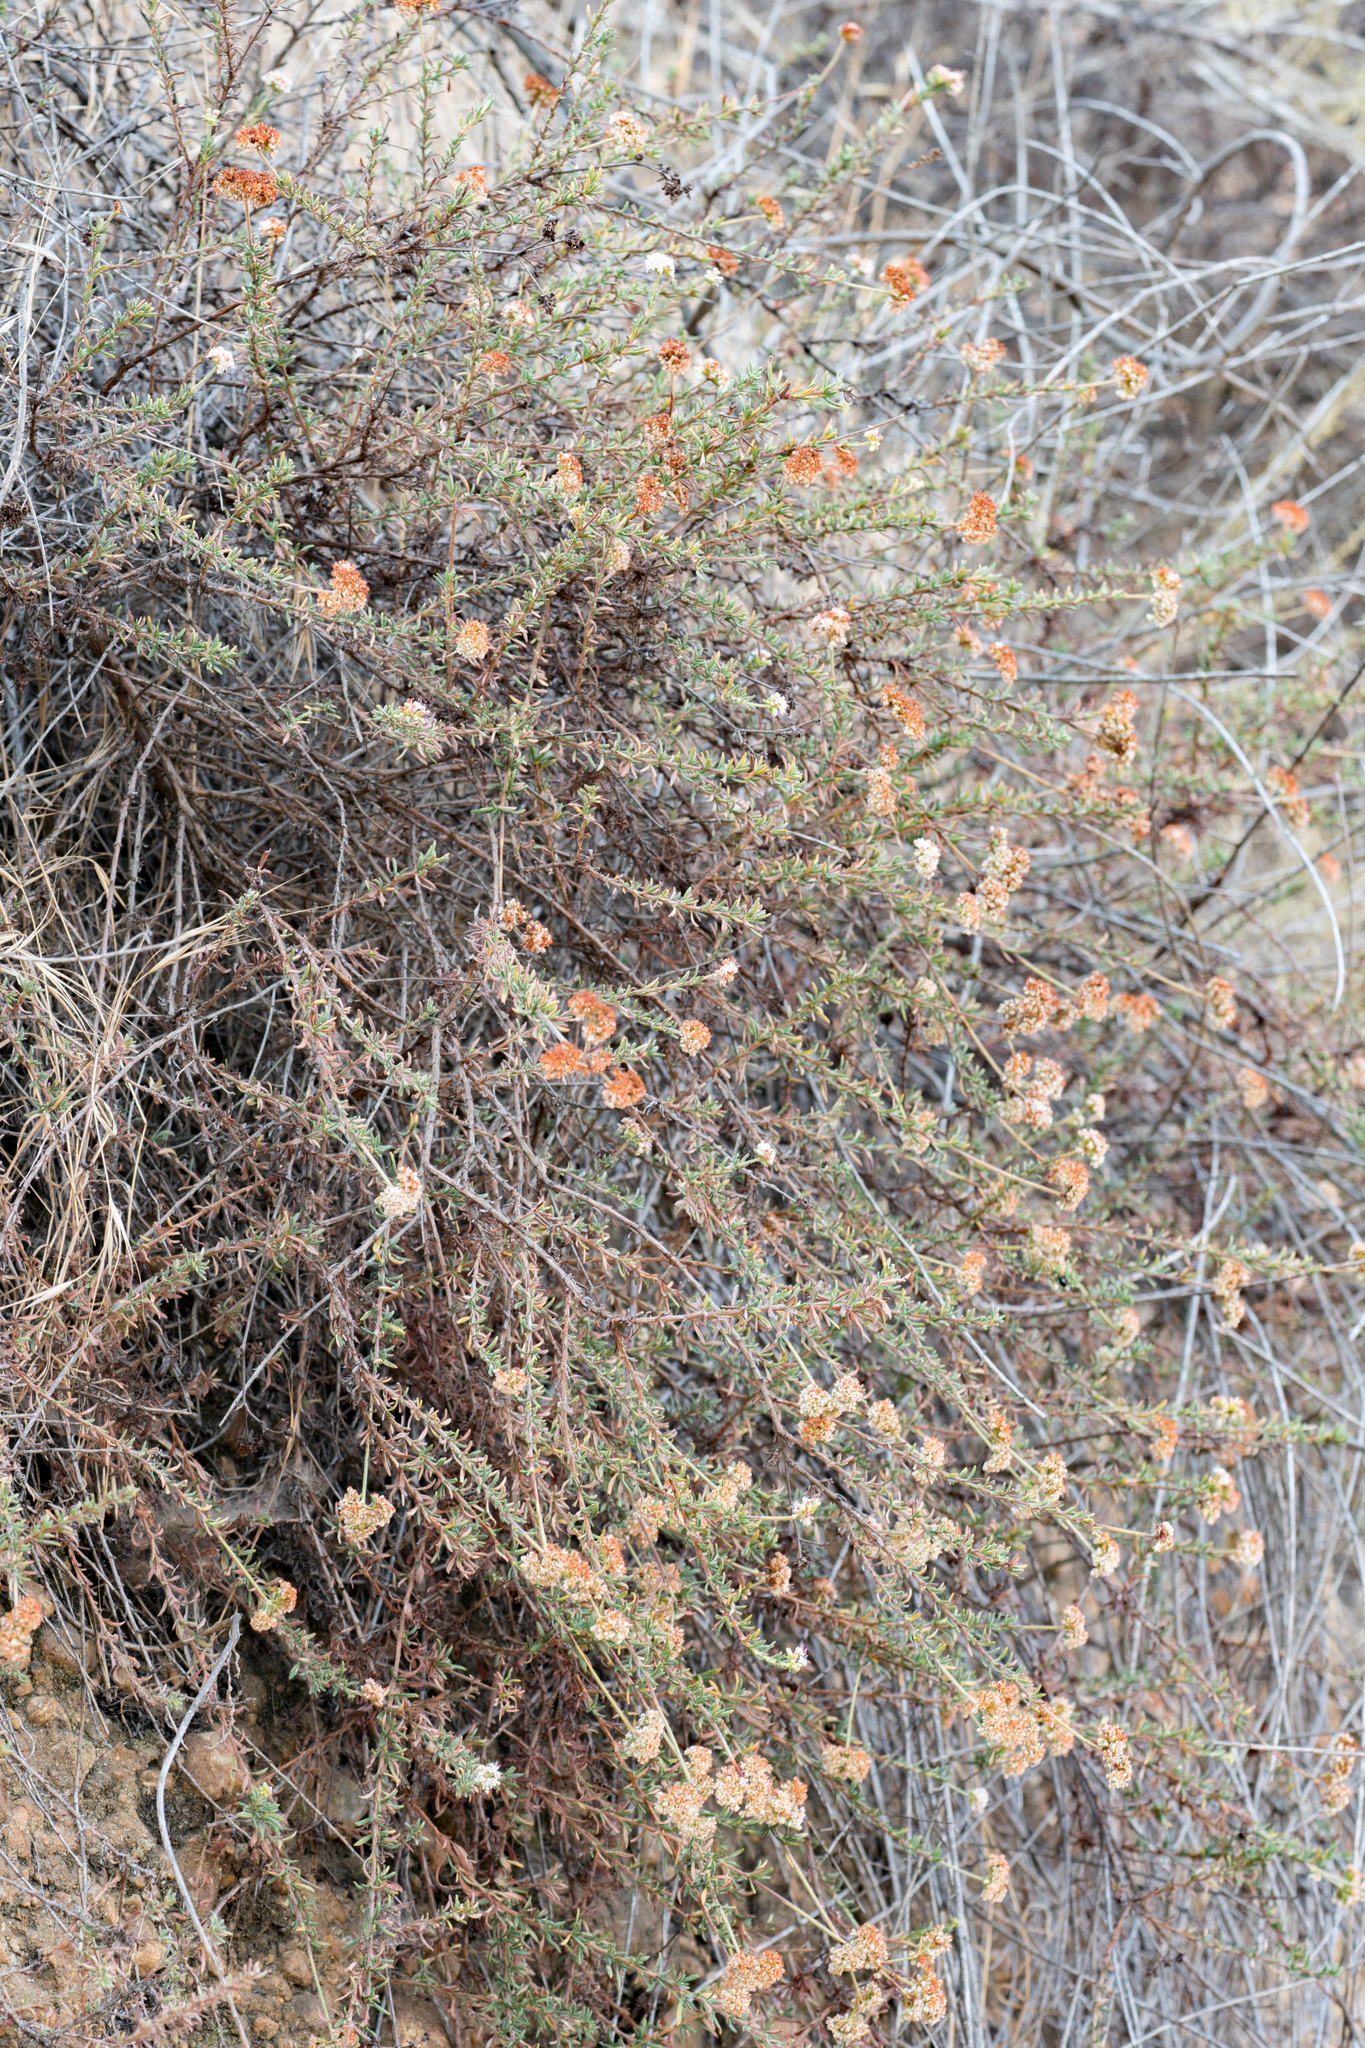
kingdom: Plantae
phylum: Tracheophyta
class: Magnoliopsida
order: Caryophyllales
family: Polygonaceae
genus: Eriogonum
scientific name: Eriogonum fasciculatum
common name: California wild buckwheat
